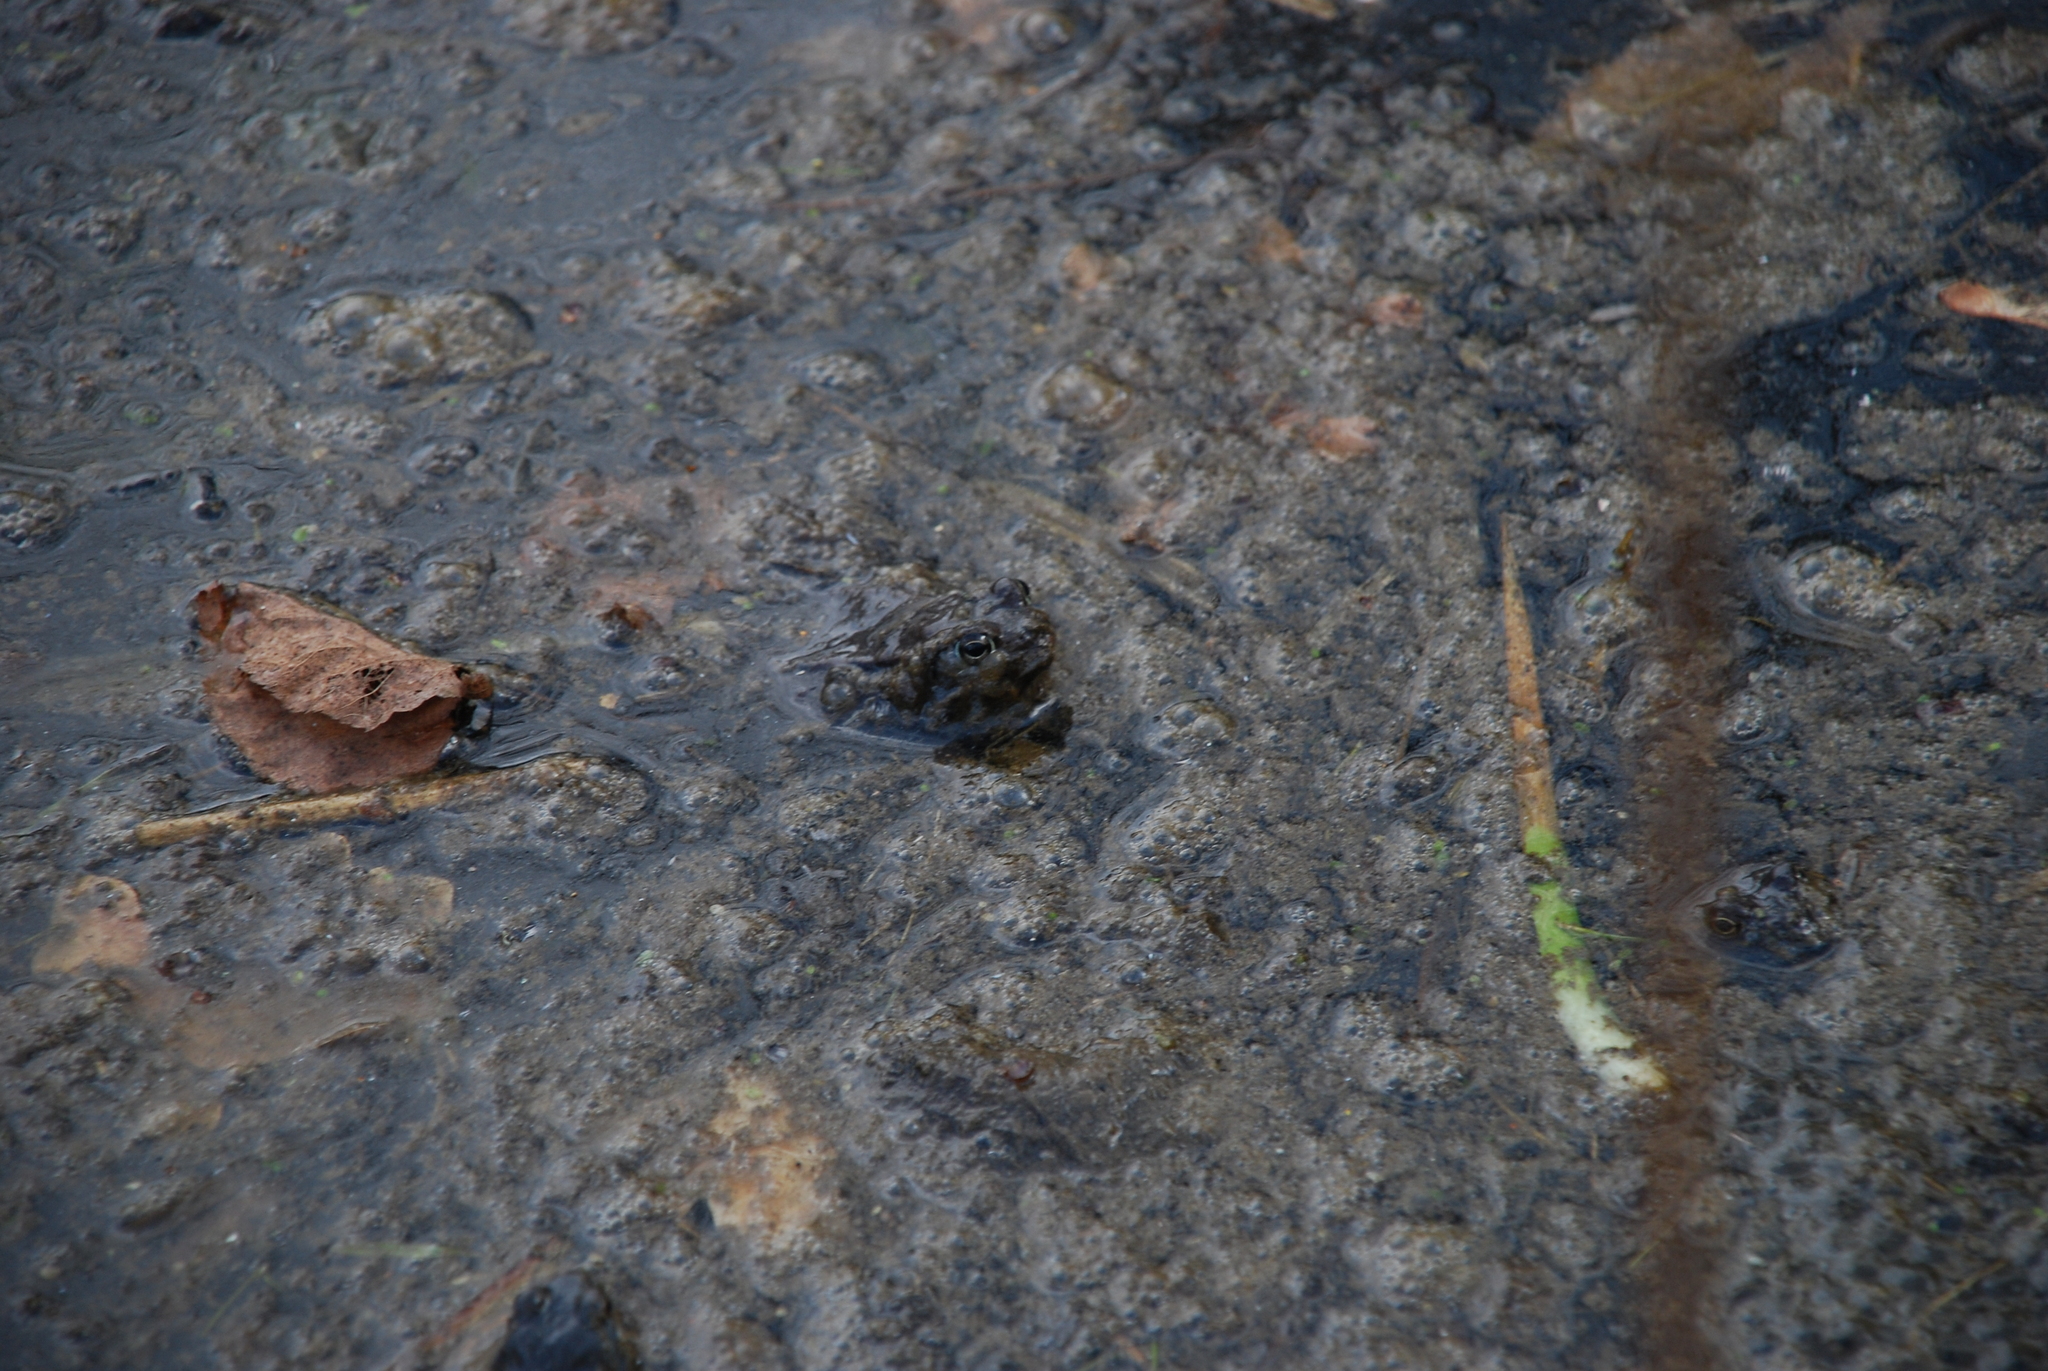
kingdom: Animalia
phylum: Chordata
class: Amphibia
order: Anura
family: Ranidae
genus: Rana
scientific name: Rana temporaria
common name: Common frog
